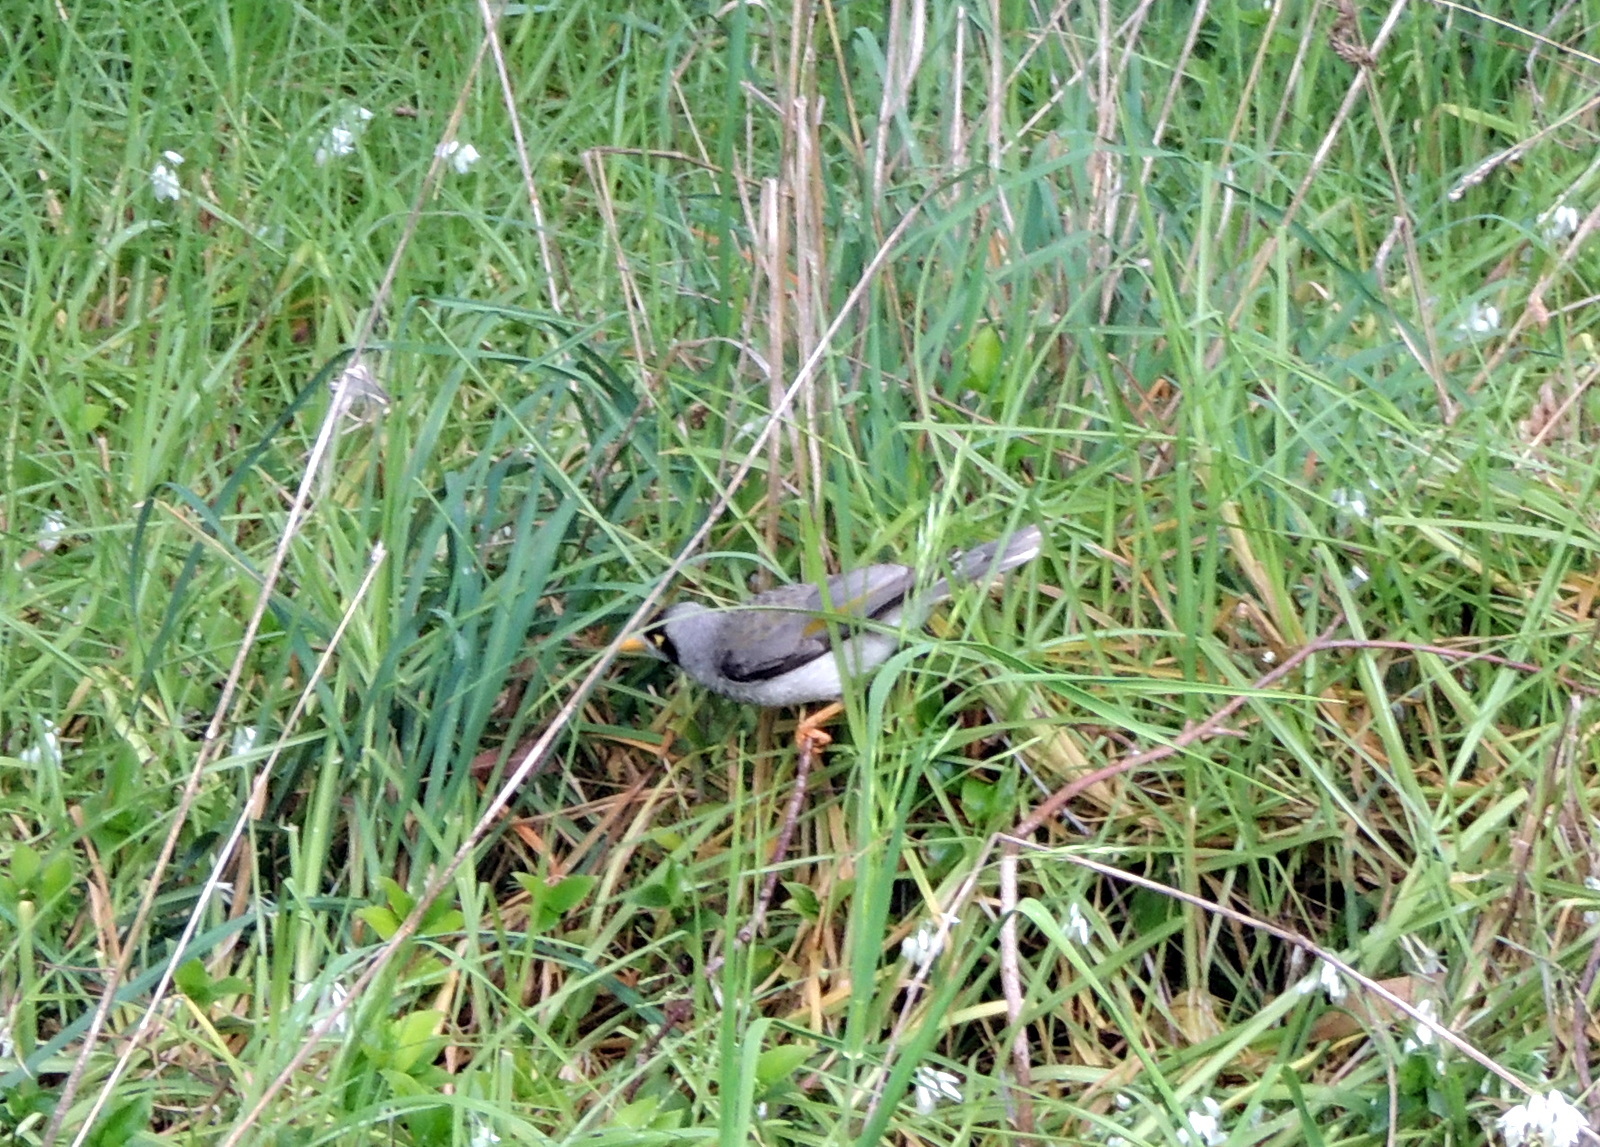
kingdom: Animalia
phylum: Chordata
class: Aves
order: Passeriformes
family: Meliphagidae
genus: Manorina
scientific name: Manorina melanocephala
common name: Noisy miner
